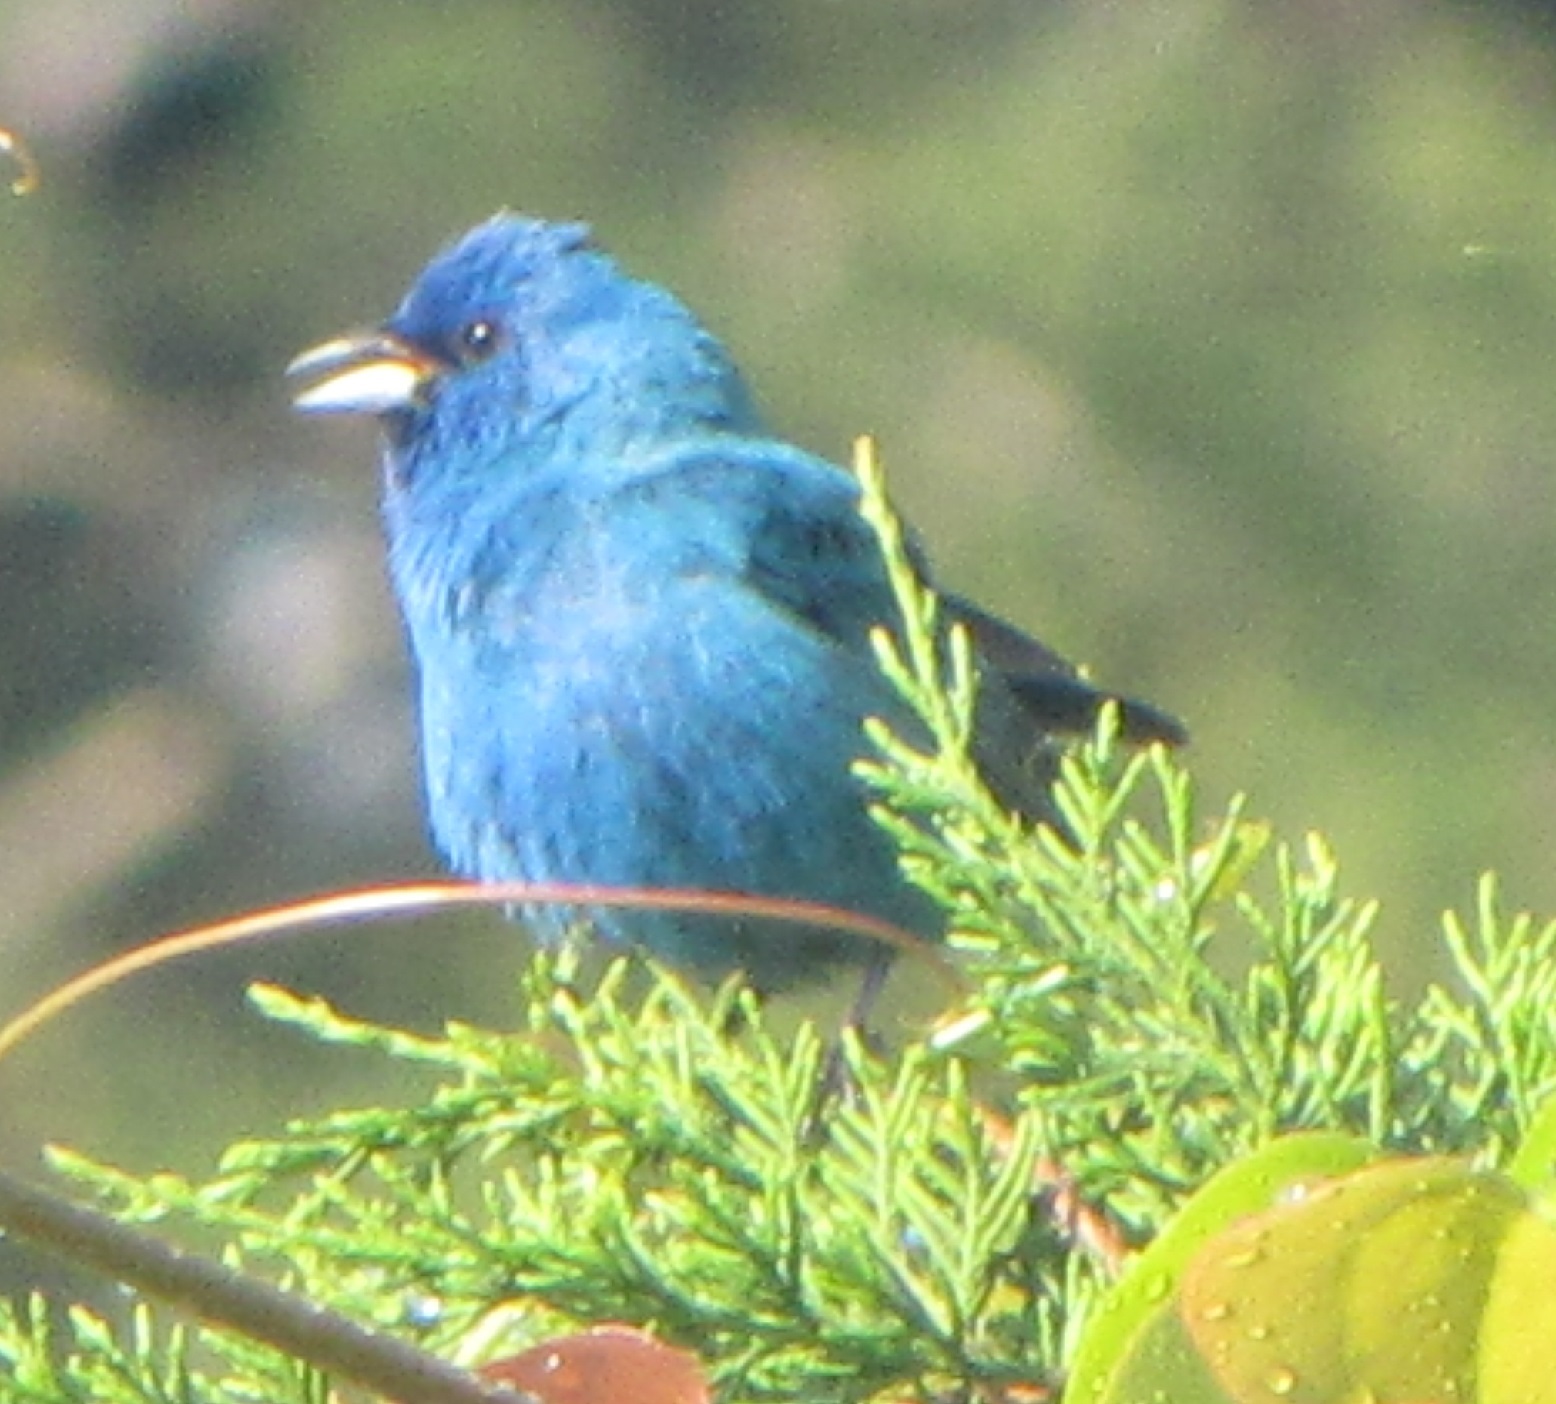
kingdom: Animalia
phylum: Chordata
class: Aves
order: Passeriformes
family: Cardinalidae
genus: Passerina
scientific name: Passerina cyanea
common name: Indigo bunting
